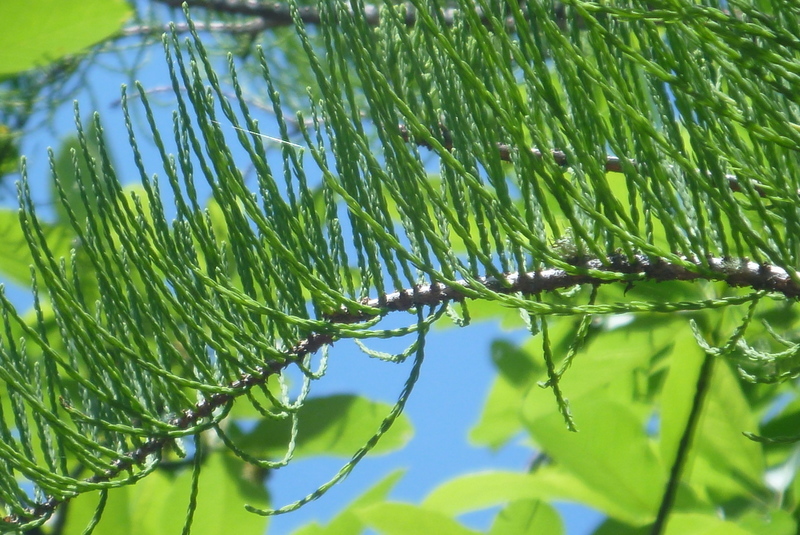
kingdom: Plantae
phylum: Tracheophyta
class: Pinopsida
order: Pinales
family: Cupressaceae
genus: Taxodium
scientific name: Taxodium distichum
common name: Bald cypress
